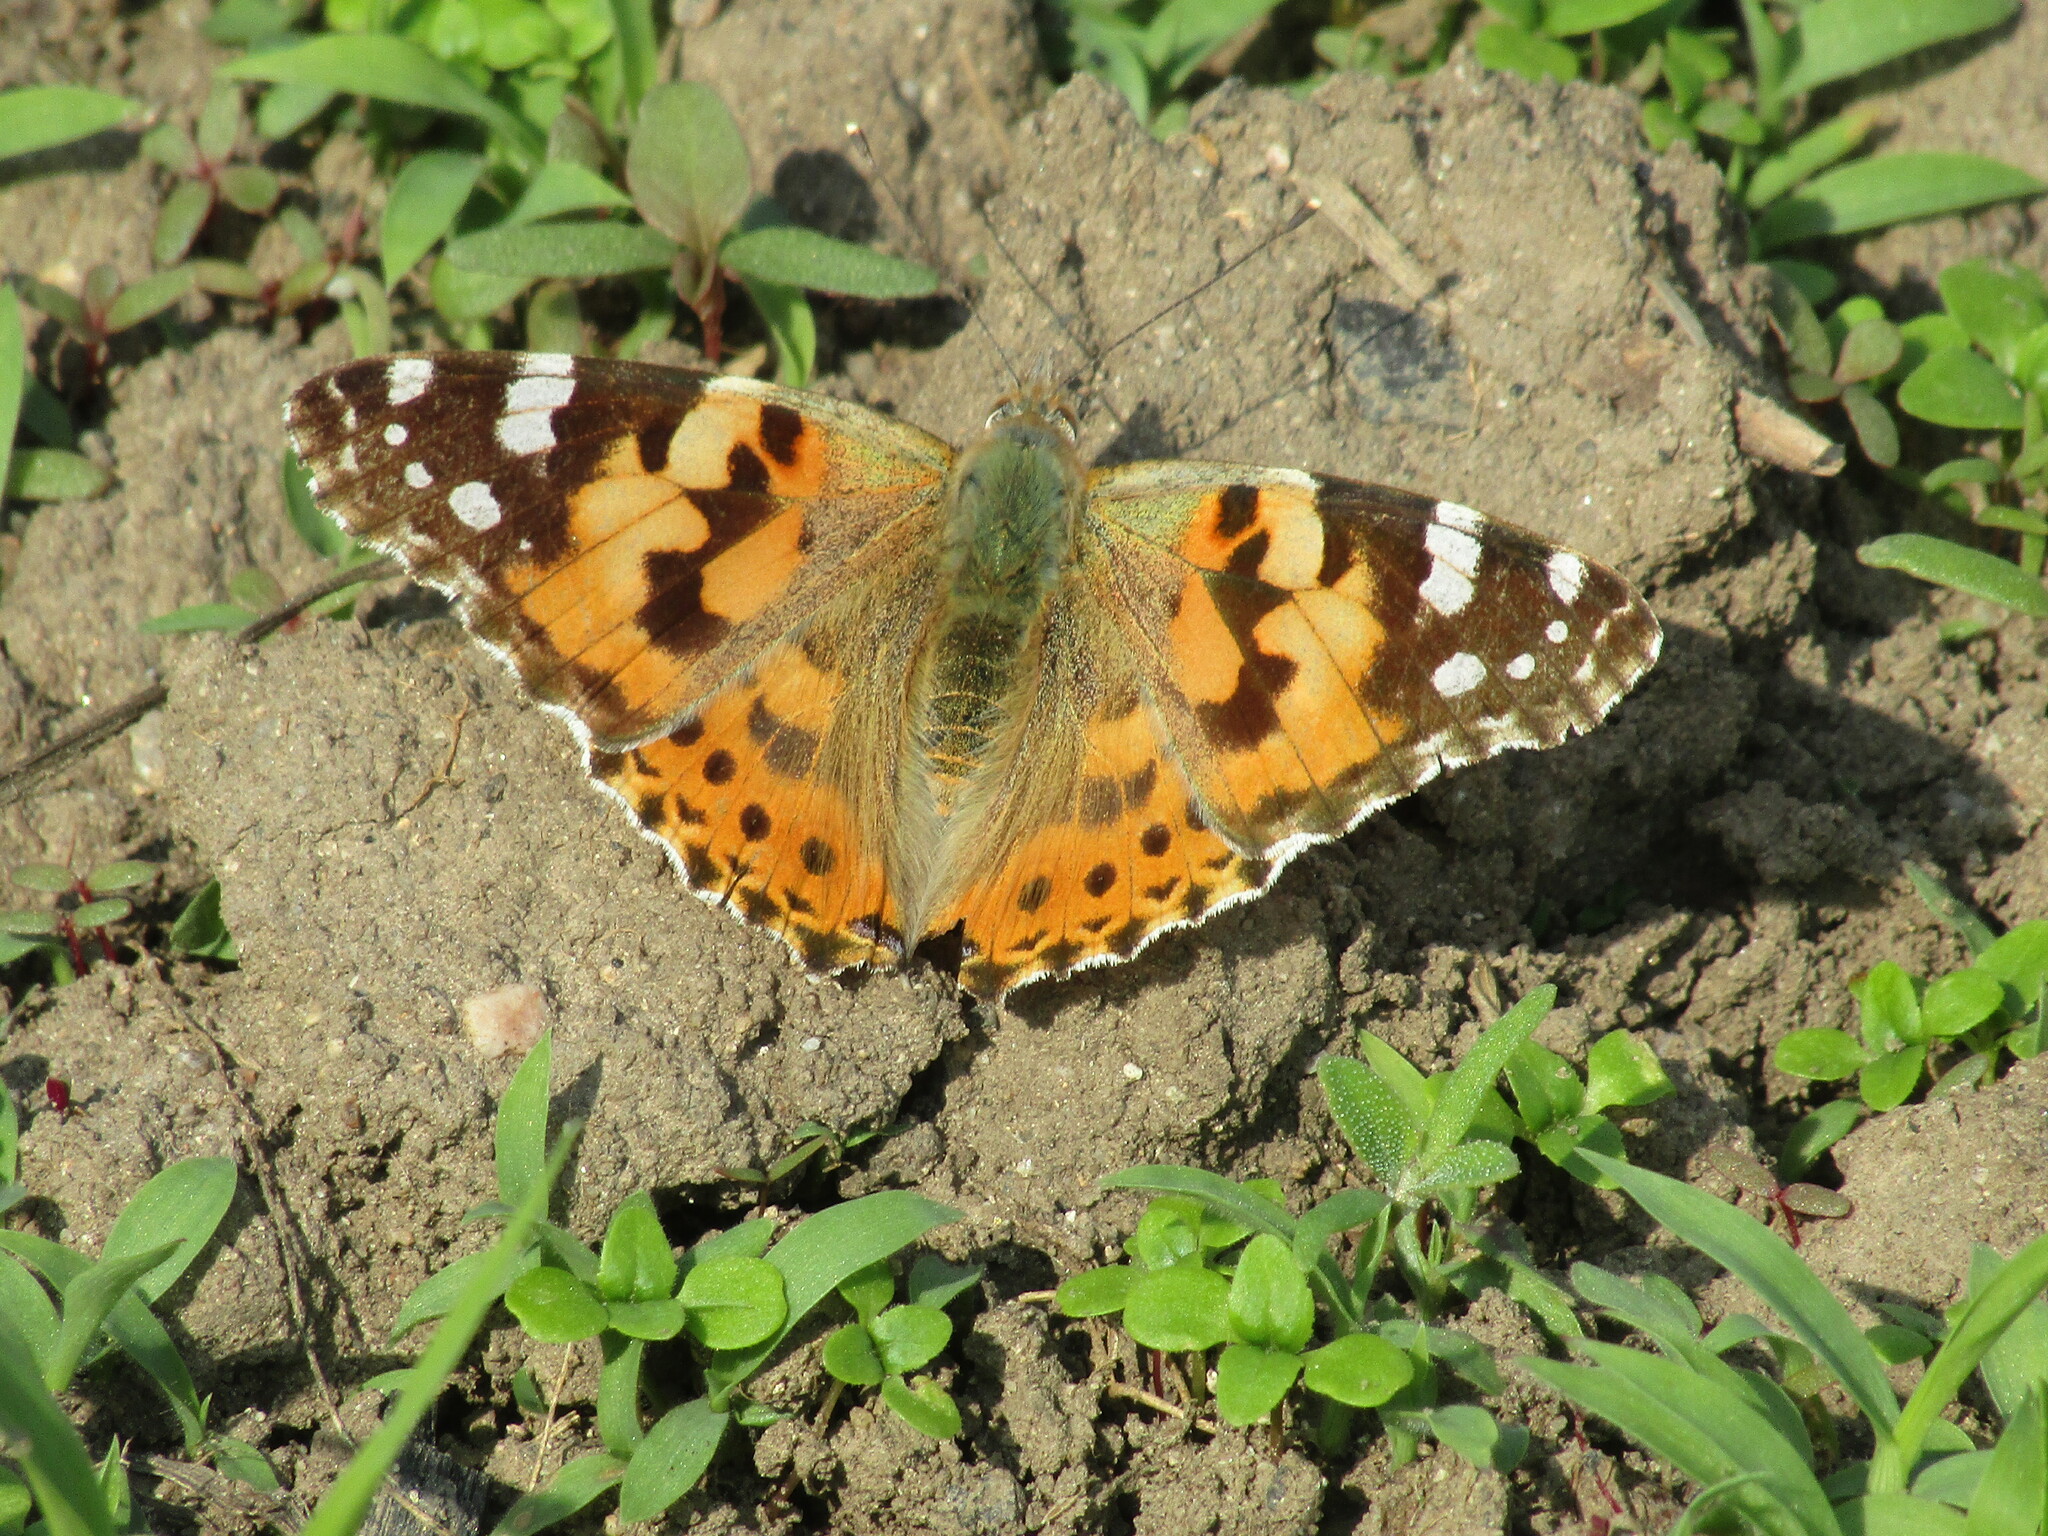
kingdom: Animalia
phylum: Arthropoda
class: Insecta
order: Lepidoptera
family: Nymphalidae
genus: Vanessa
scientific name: Vanessa cardui
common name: Painted lady
